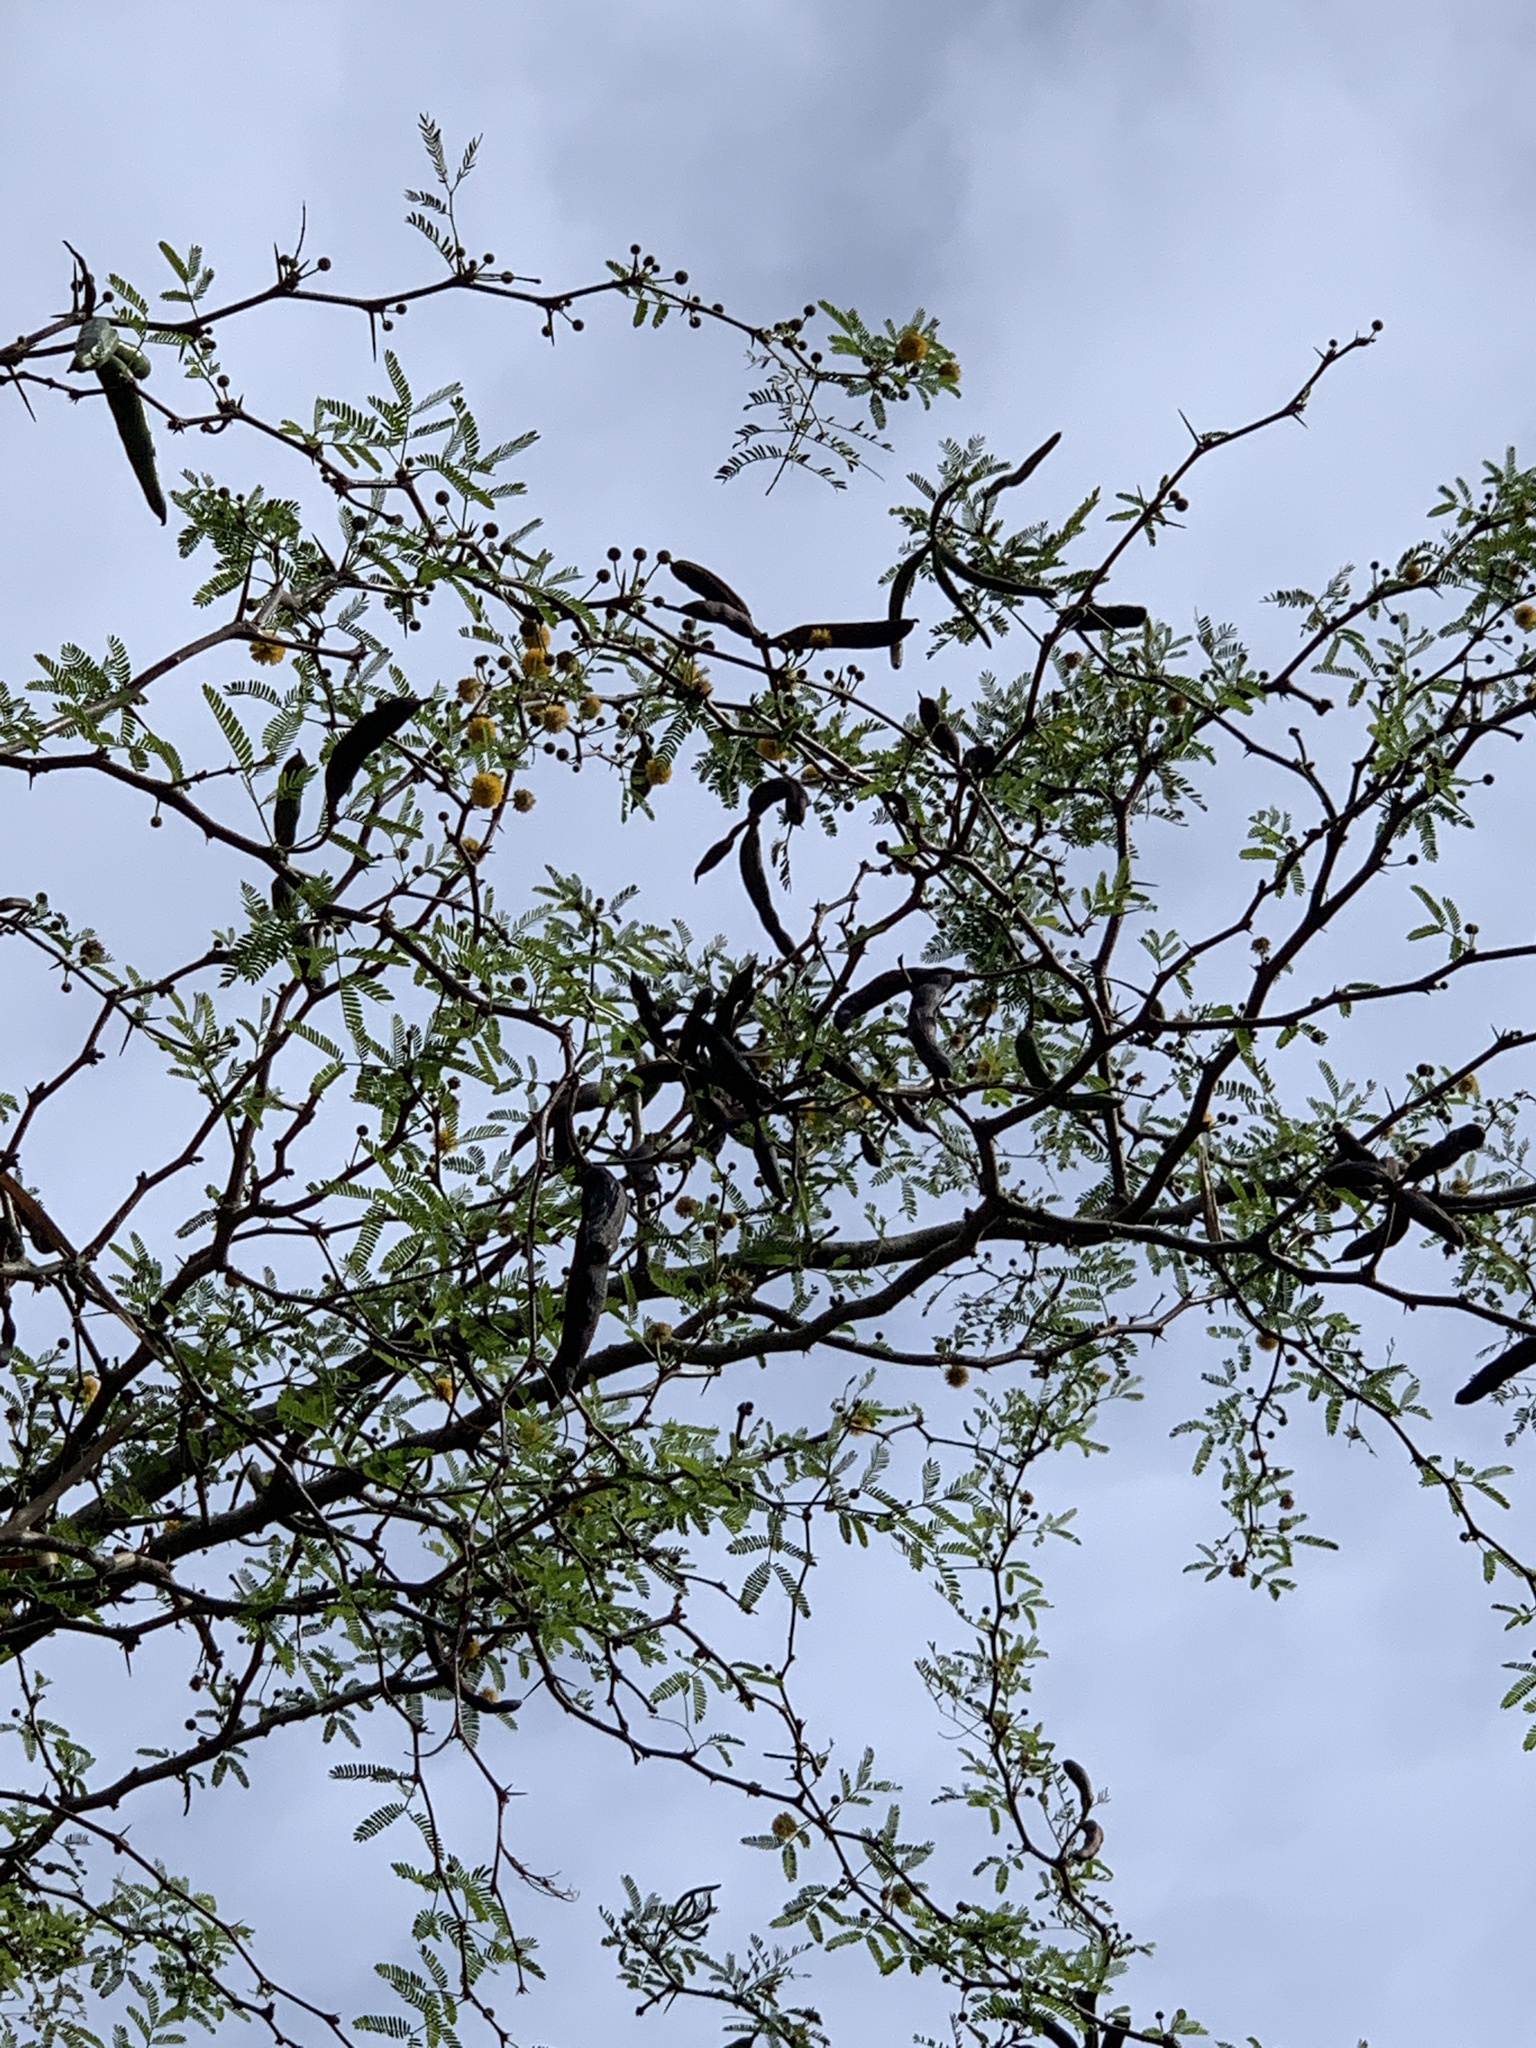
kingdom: Plantae
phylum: Tracheophyta
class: Magnoliopsida
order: Fabales
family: Fabaceae
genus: Vachellia
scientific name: Vachellia farnesiana
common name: Sweet acacia
